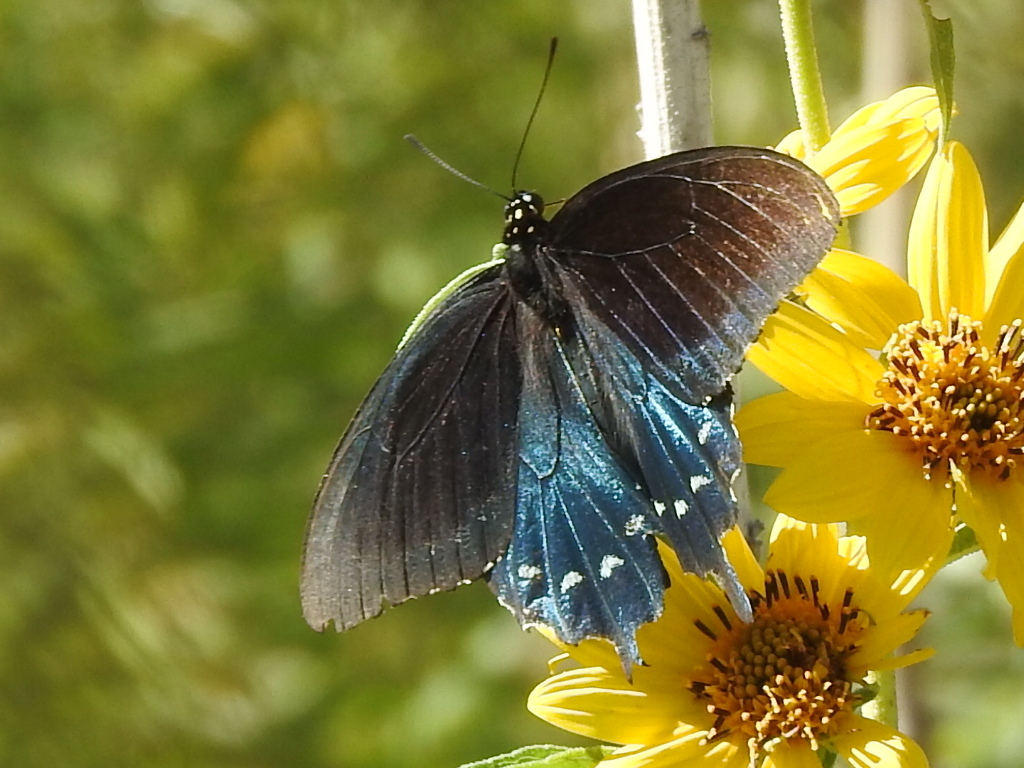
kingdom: Animalia
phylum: Arthropoda
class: Insecta
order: Lepidoptera
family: Papilionidae
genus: Battus
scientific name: Battus philenor
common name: Pipevine swallowtail
